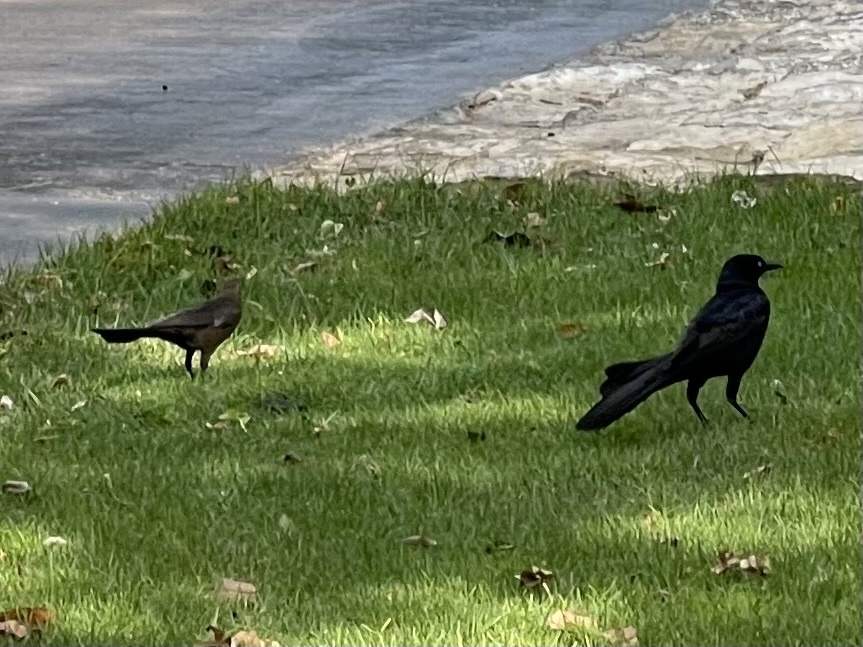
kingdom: Animalia
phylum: Chordata
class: Aves
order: Passeriformes
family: Icteridae
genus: Quiscalus
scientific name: Quiscalus mexicanus
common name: Great-tailed grackle
